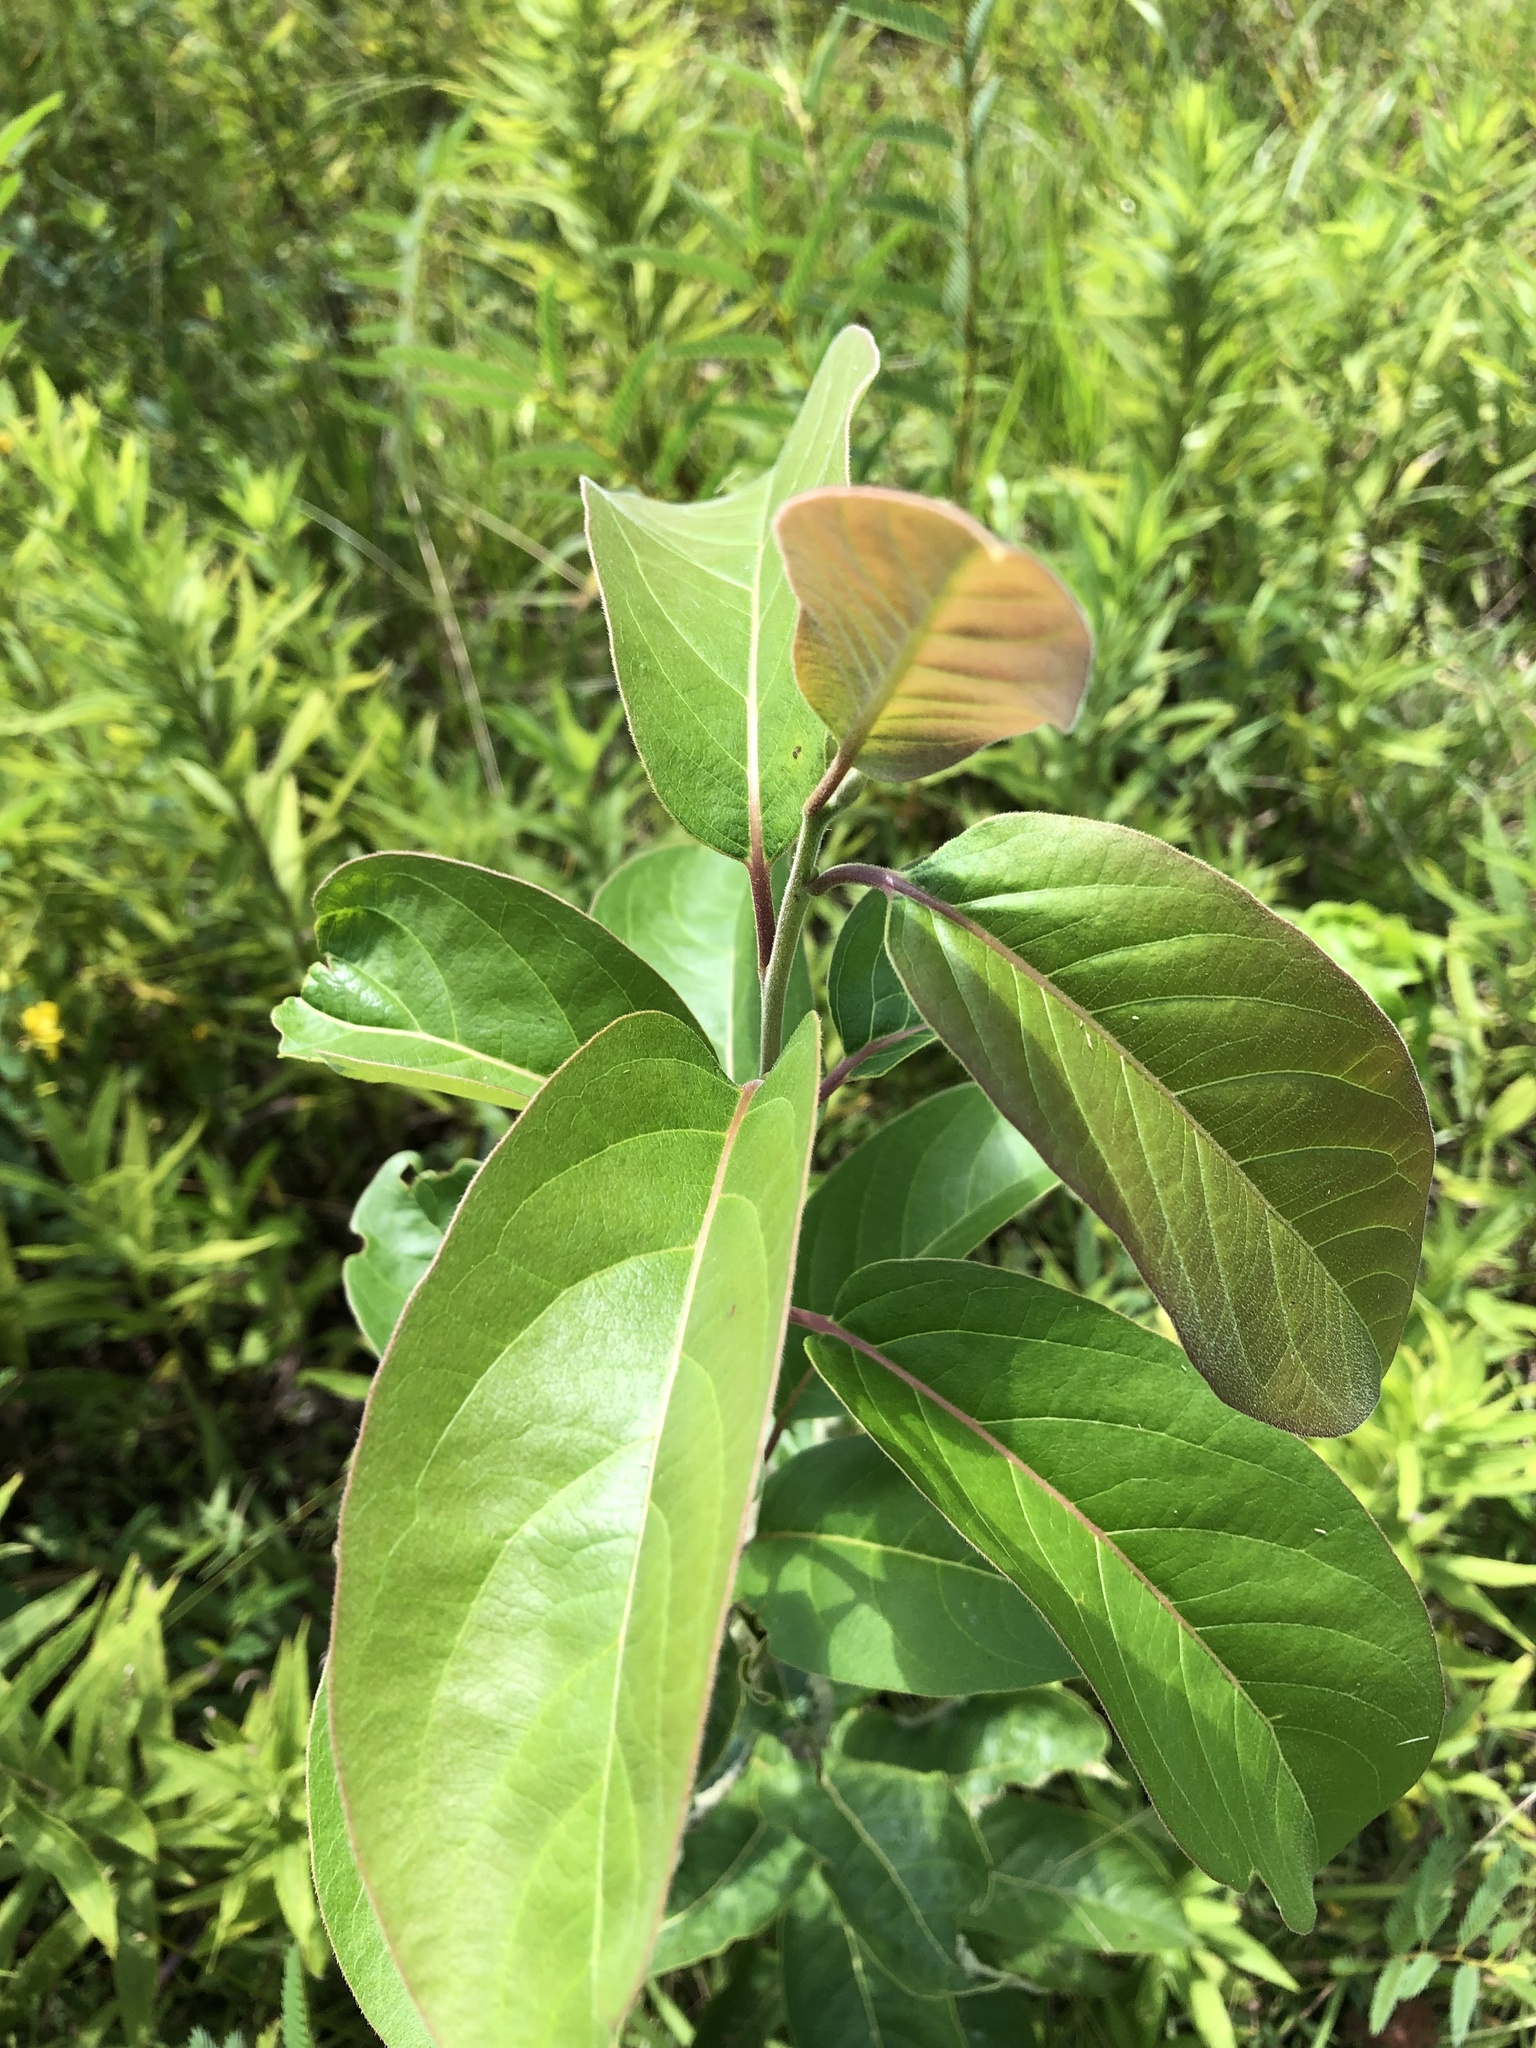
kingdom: Plantae
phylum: Tracheophyta
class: Magnoliopsida
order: Ericales
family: Ebenaceae
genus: Diospyros
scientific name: Diospyros virginiana
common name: Persimmon
